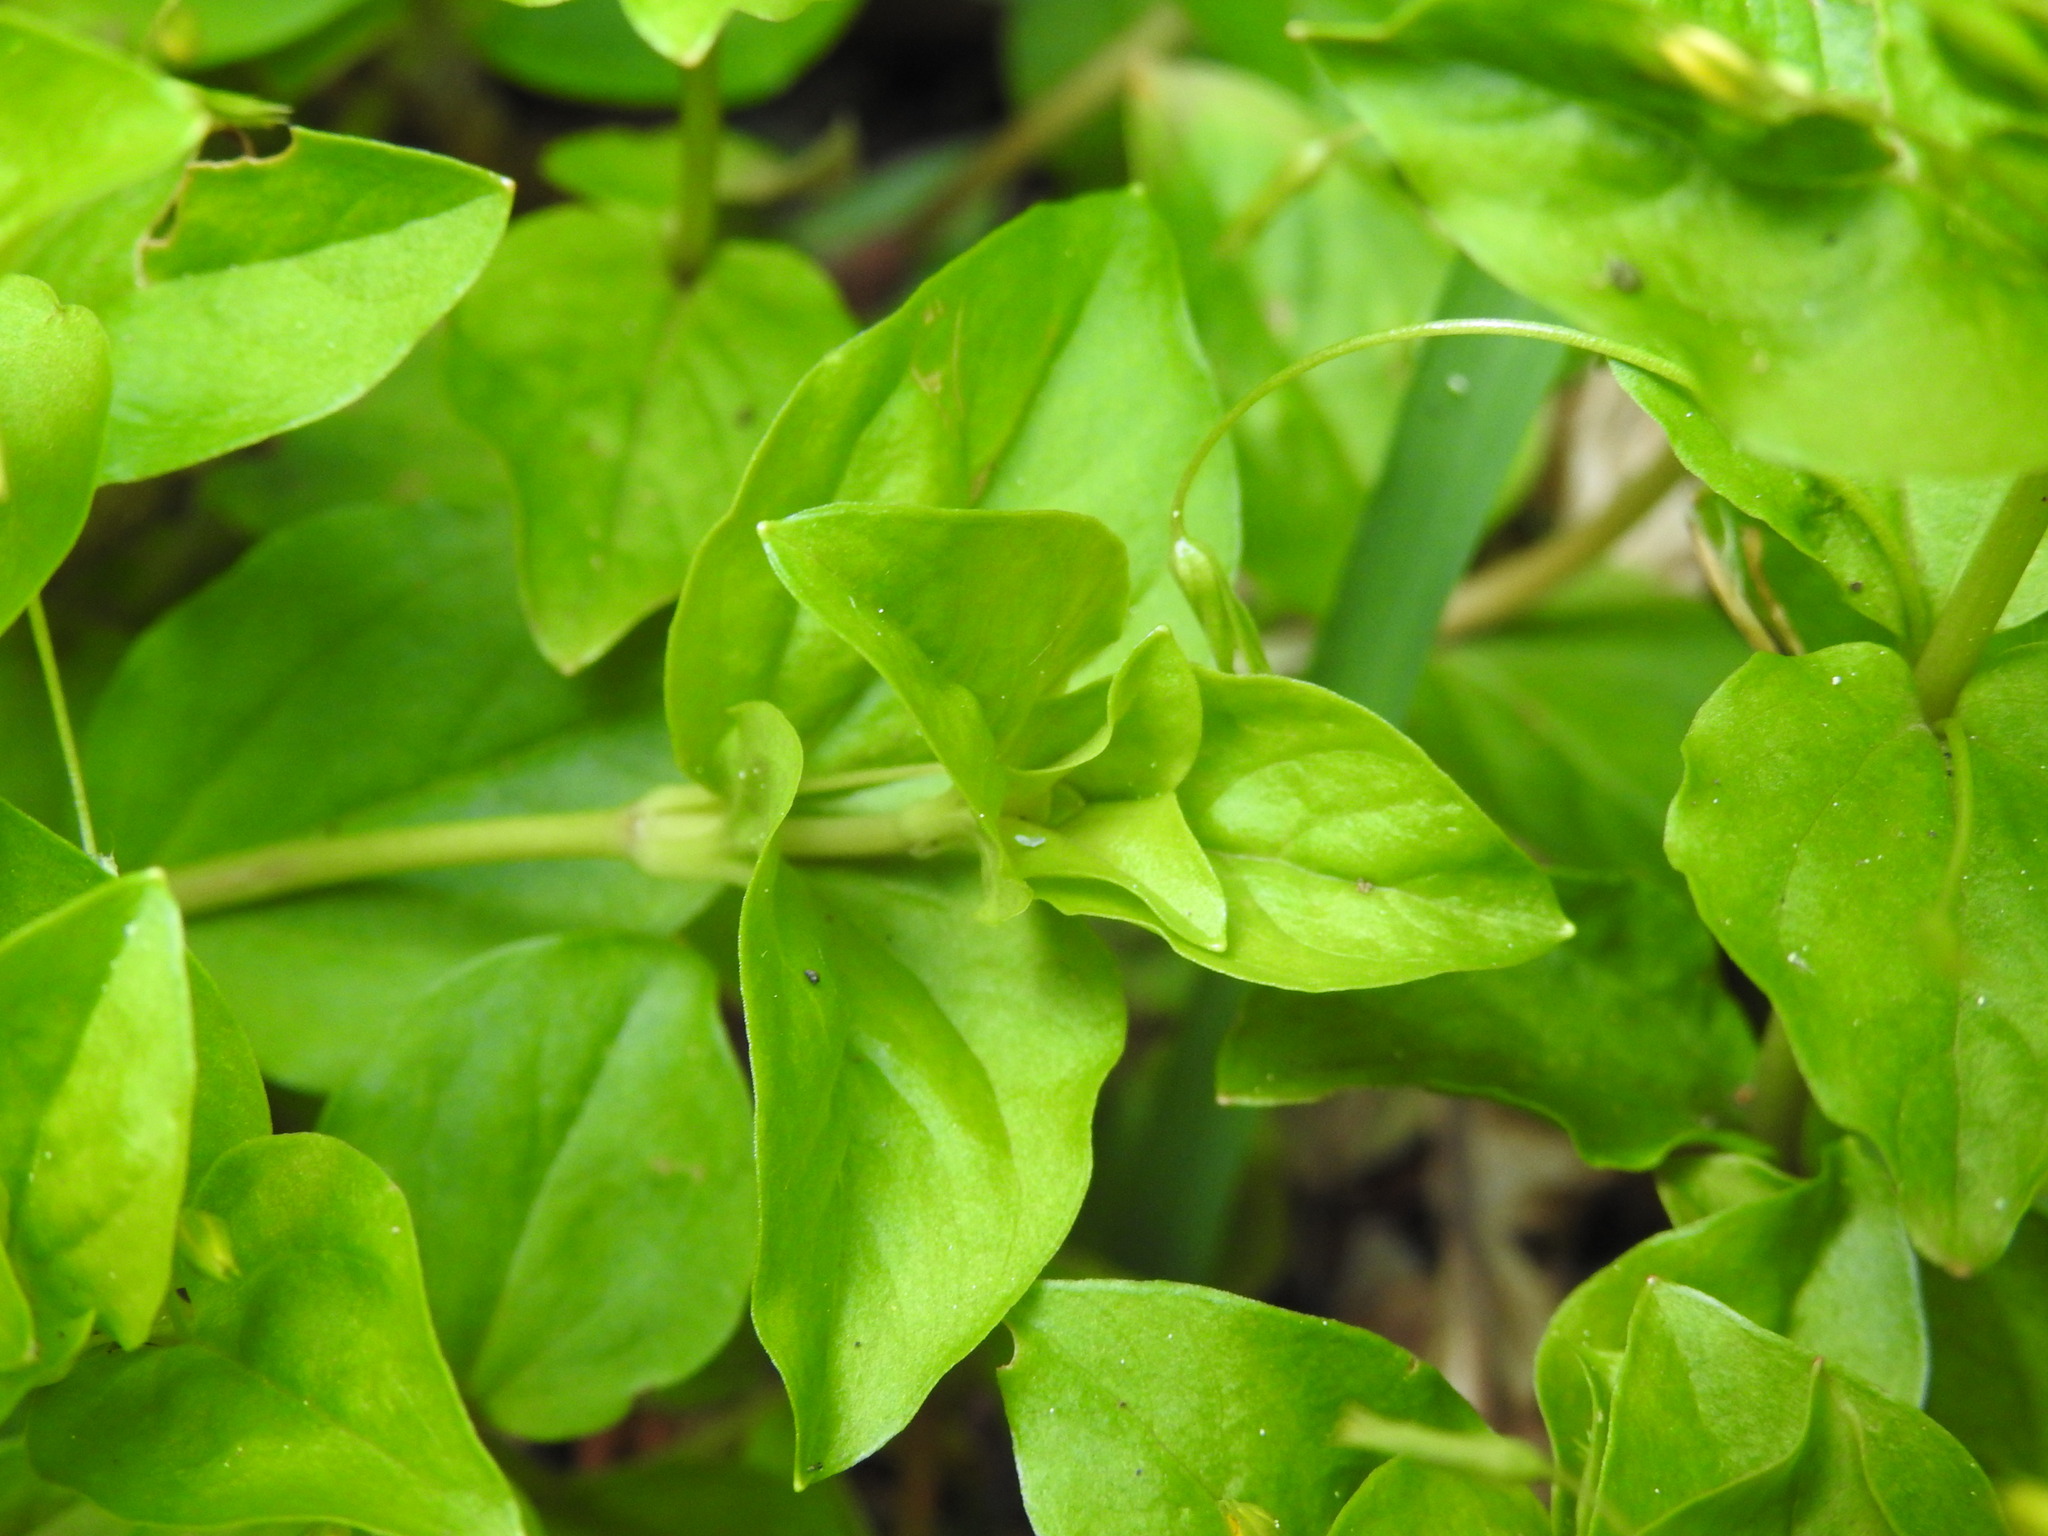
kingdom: Plantae
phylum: Tracheophyta
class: Magnoliopsida
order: Ericales
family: Primulaceae
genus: Lysimachia
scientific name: Lysimachia nemorum
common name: Yellow pimpernel
